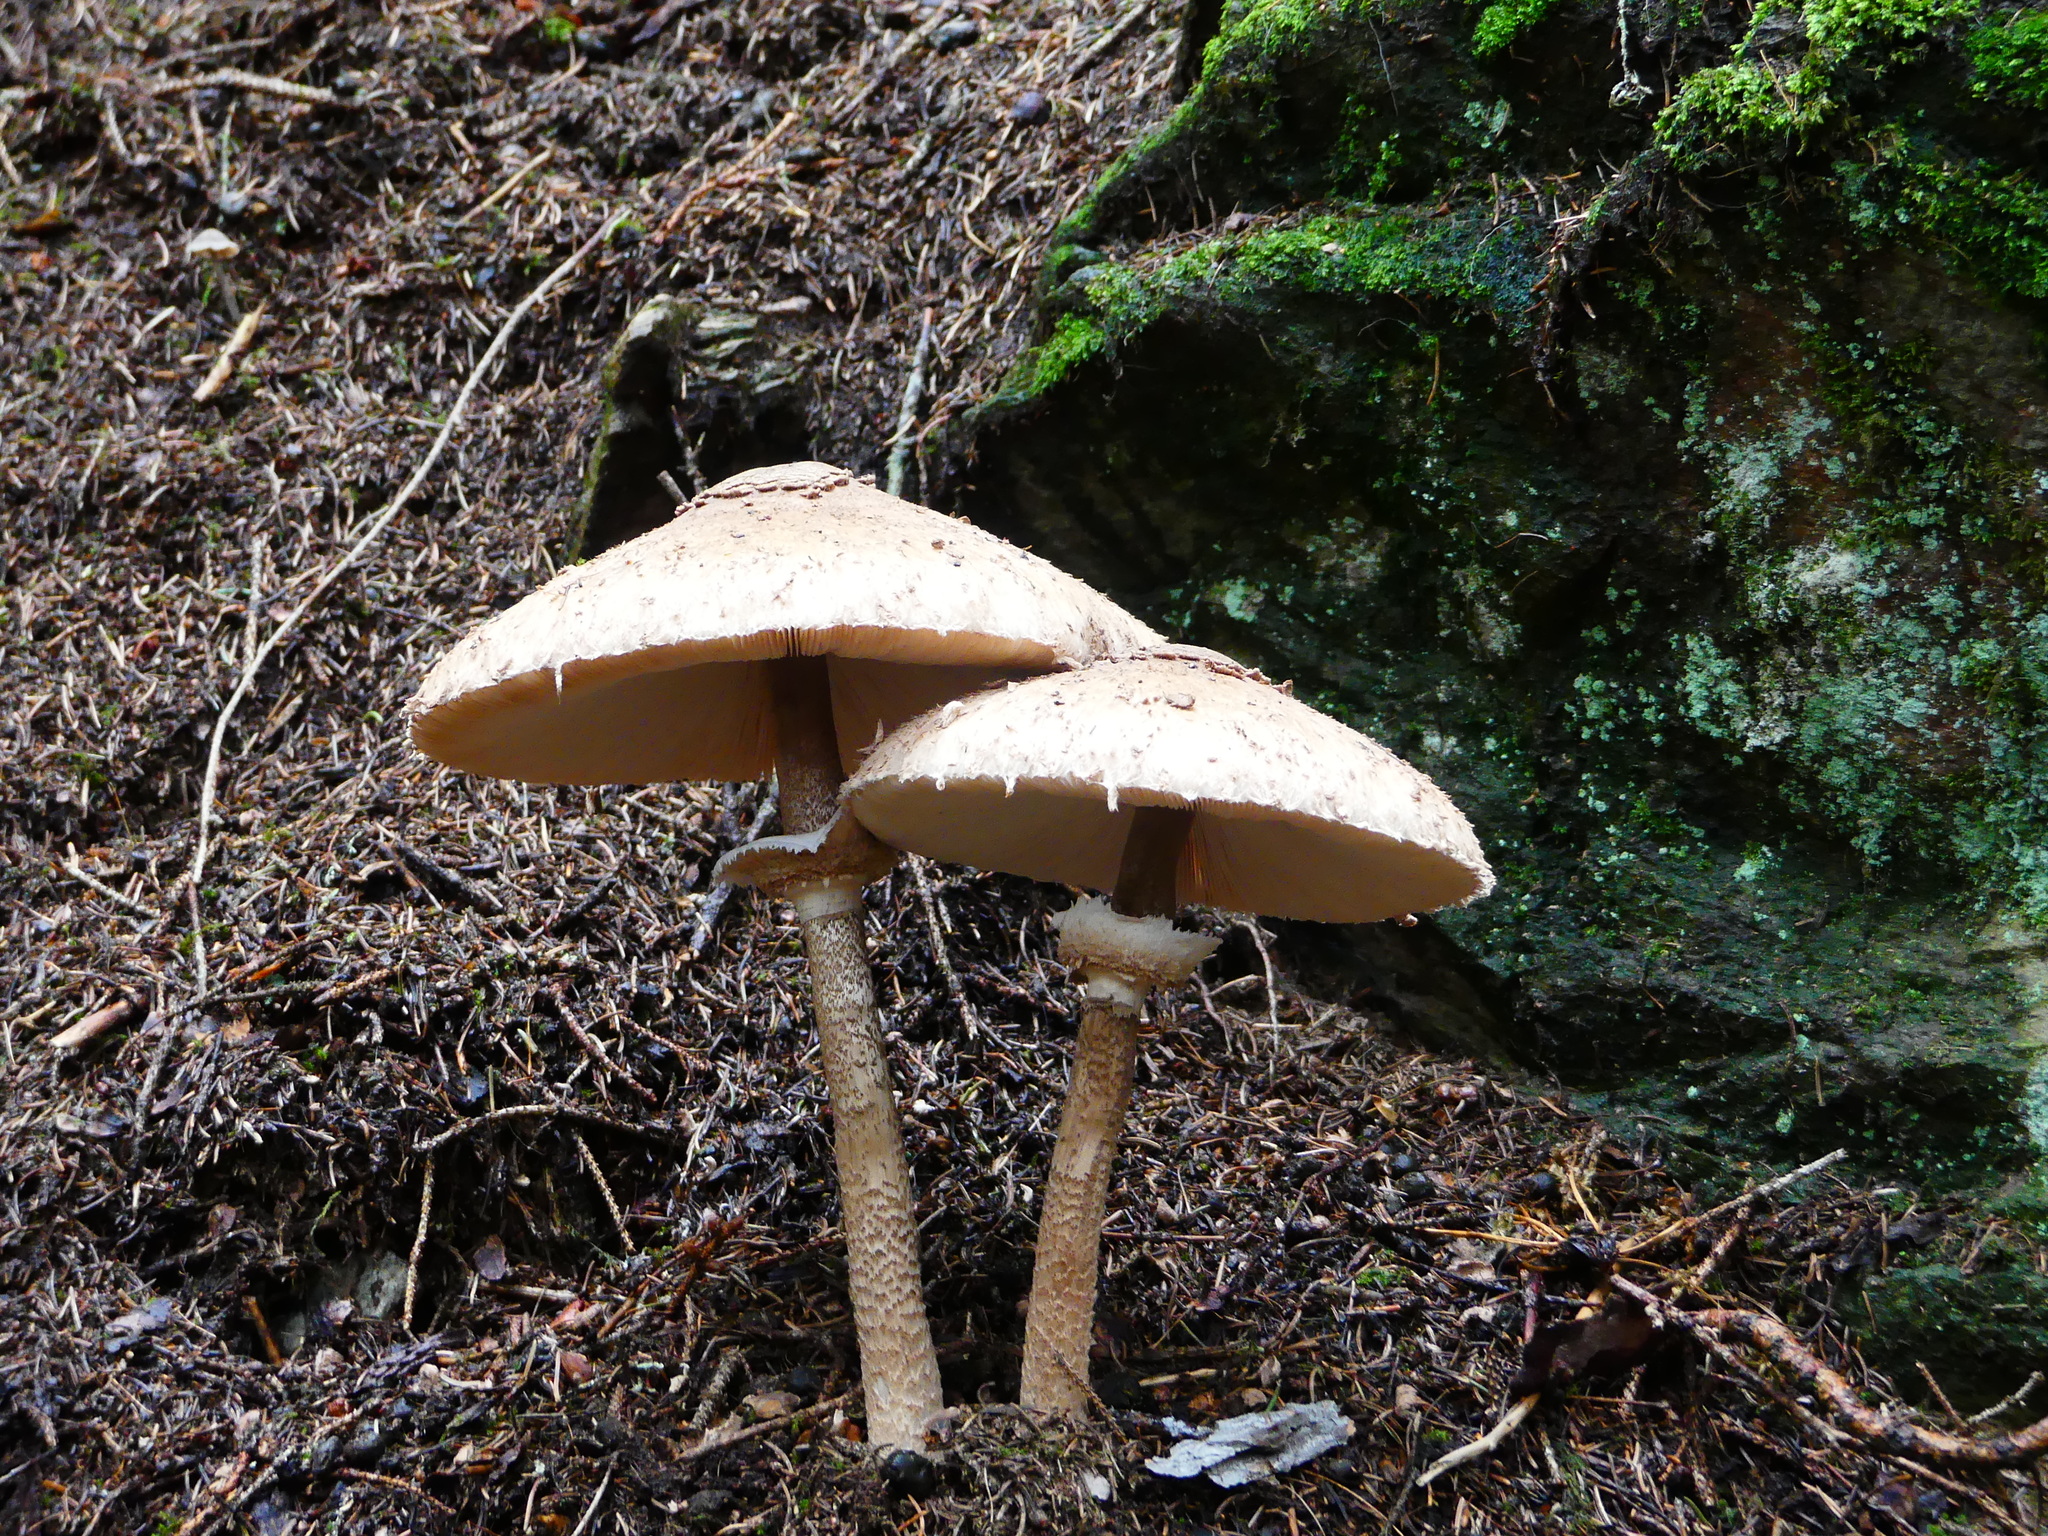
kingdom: Fungi
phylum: Basidiomycota
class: Agaricomycetes
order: Agaricales
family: Agaricaceae
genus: Macrolepiota
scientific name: Macrolepiota procera
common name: Parasol
